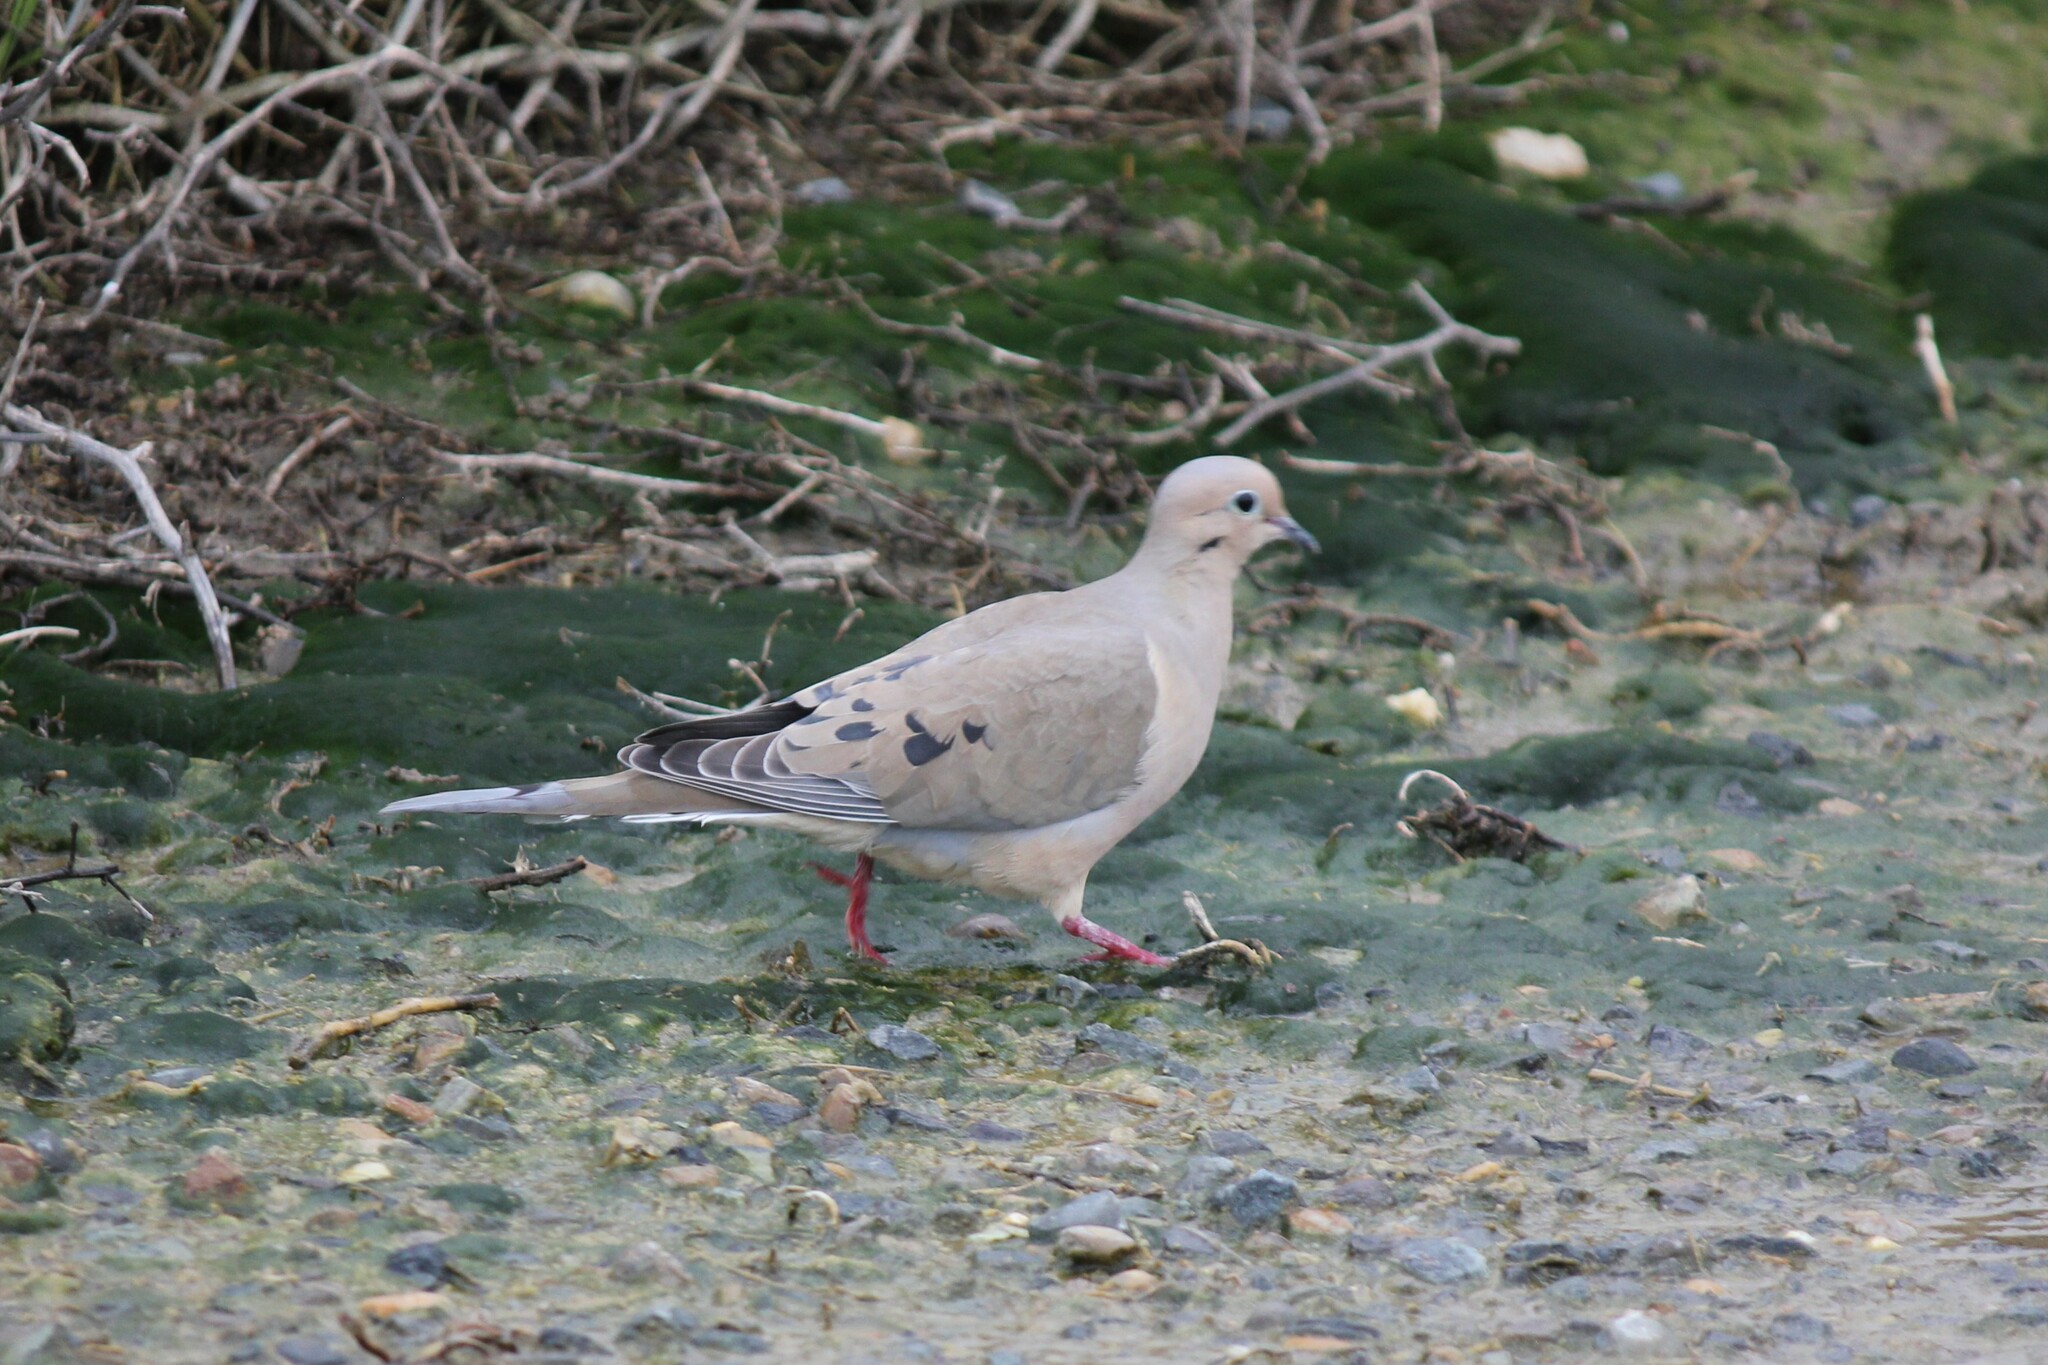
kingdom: Animalia
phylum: Chordata
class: Aves
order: Columbiformes
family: Columbidae
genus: Zenaida
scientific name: Zenaida macroura
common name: Mourning dove
